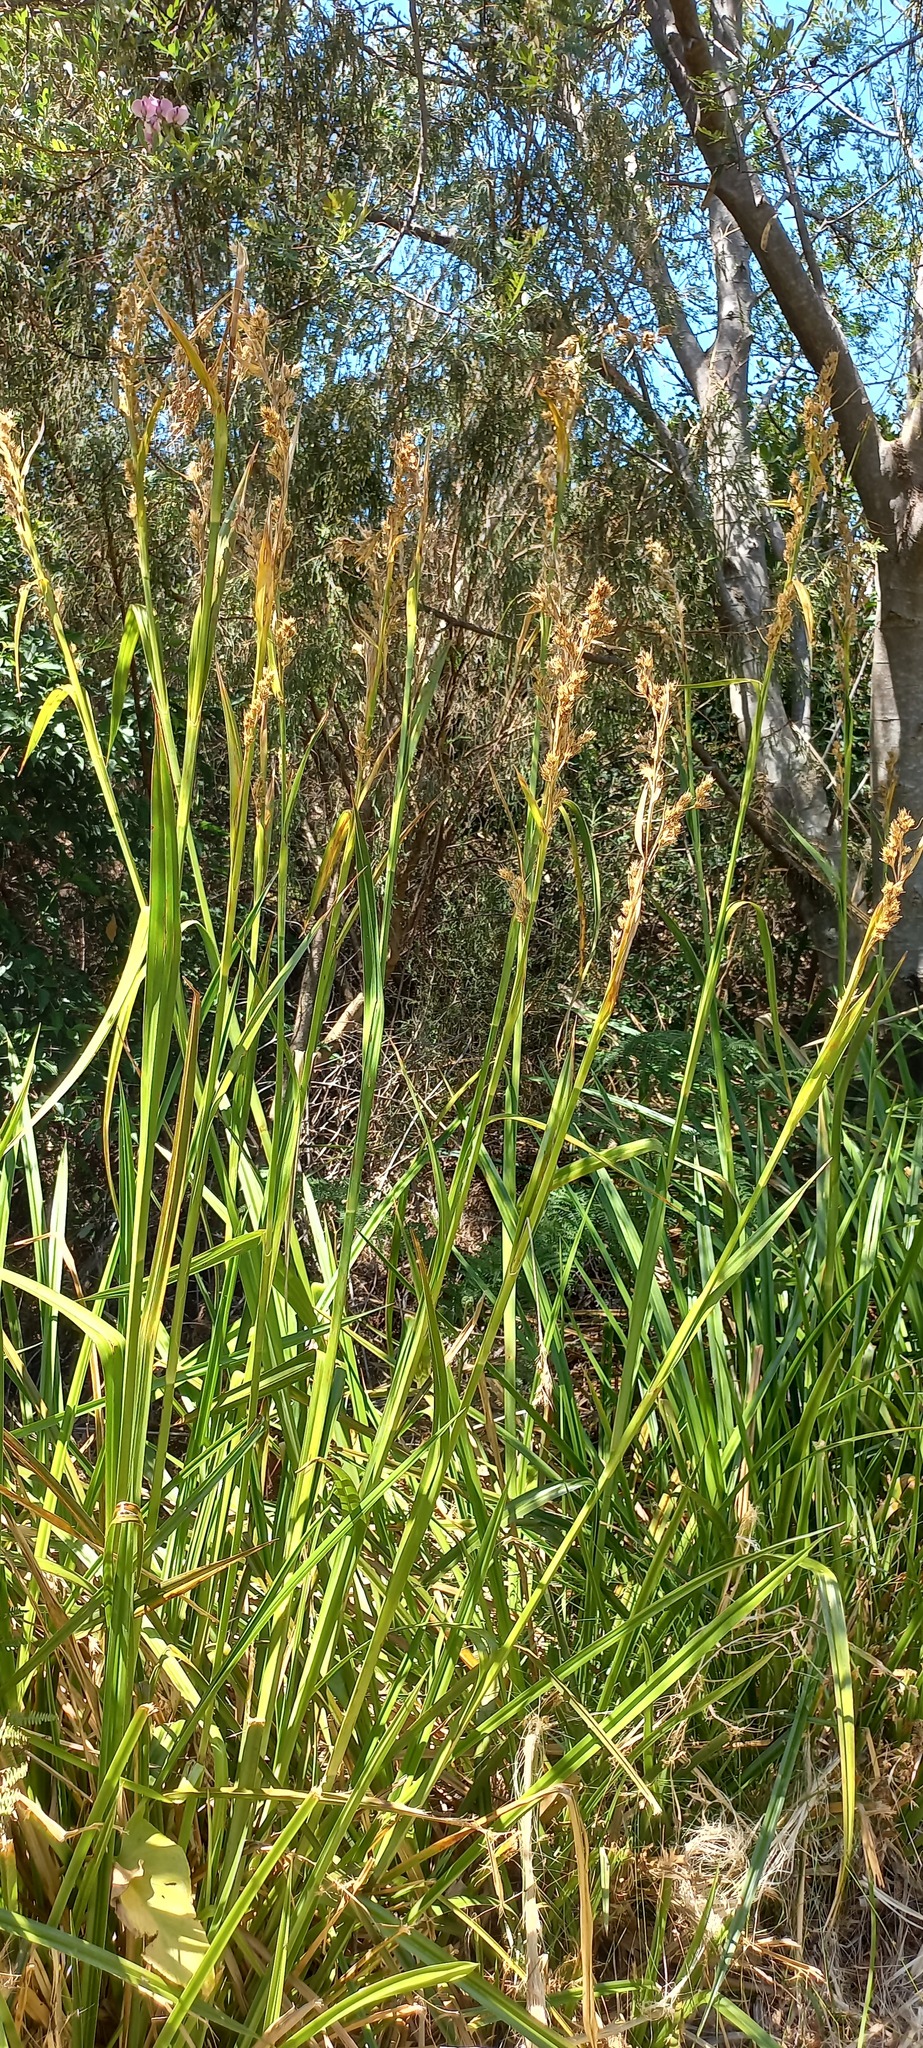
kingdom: Plantae
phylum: Tracheophyta
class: Liliopsida
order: Poales
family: Cyperaceae
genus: Carpha
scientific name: Carpha glomerata
